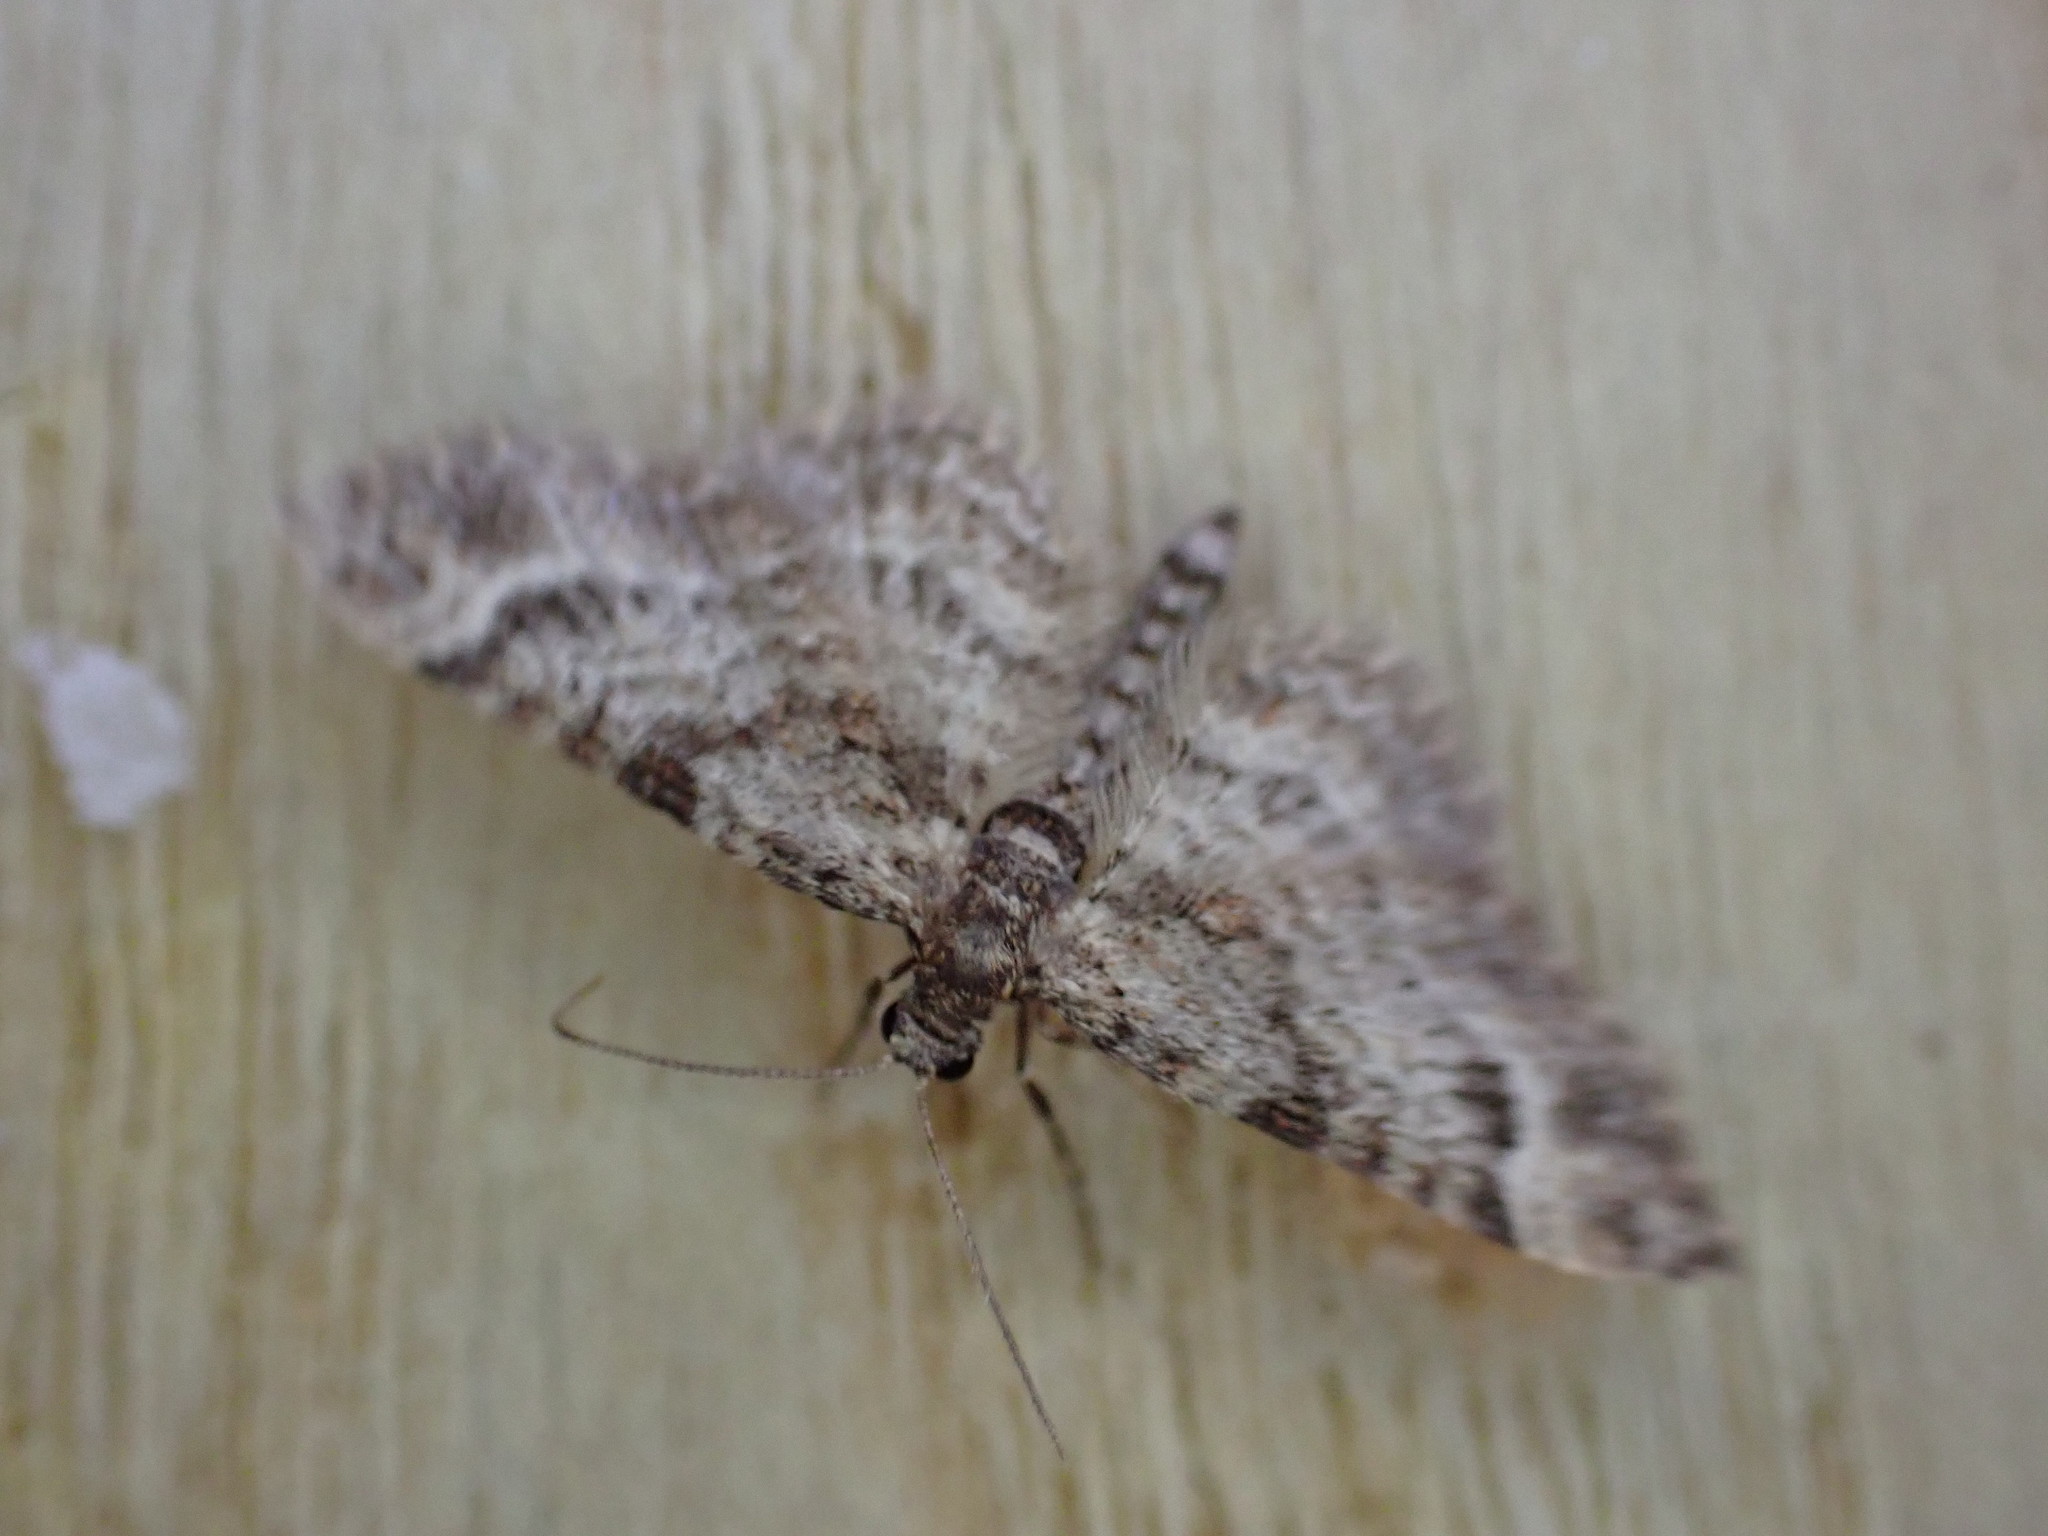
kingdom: Animalia
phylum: Arthropoda
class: Insecta
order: Lepidoptera
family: Geometridae
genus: Gymnoscelis
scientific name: Gymnoscelis rufifasciata
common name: Double-striped pug
